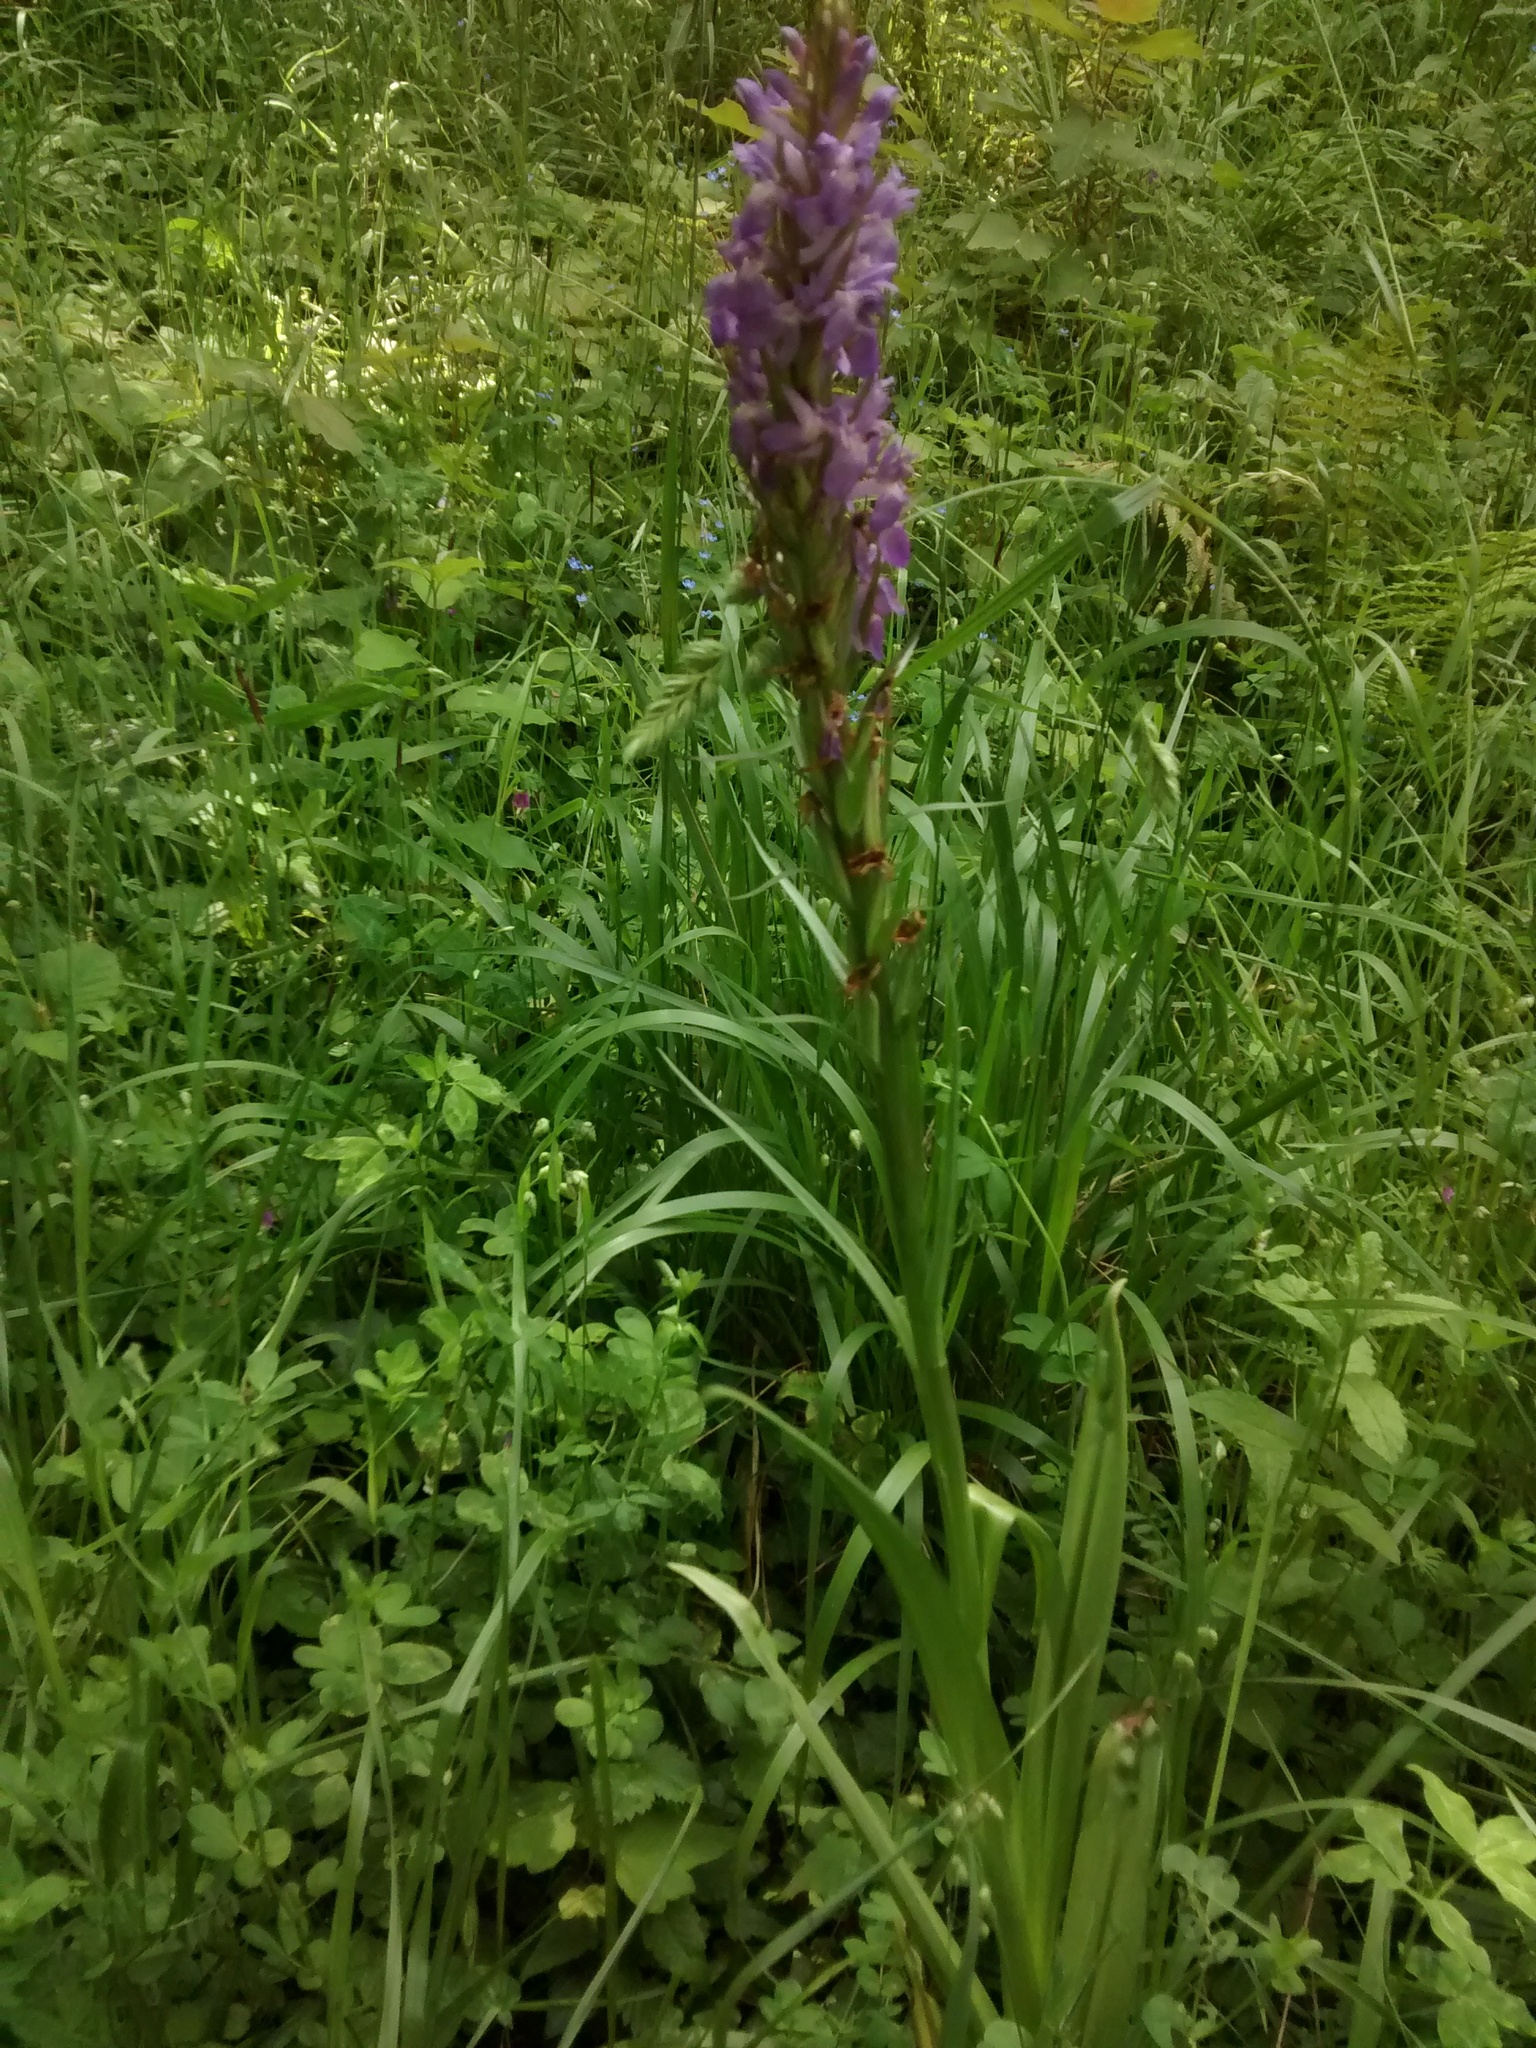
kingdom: Plantae
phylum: Tracheophyta
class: Liliopsida
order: Asparagales
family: Orchidaceae
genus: Dactylorhiza
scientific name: Dactylorhiza elata
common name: Stately dactylorhiza
